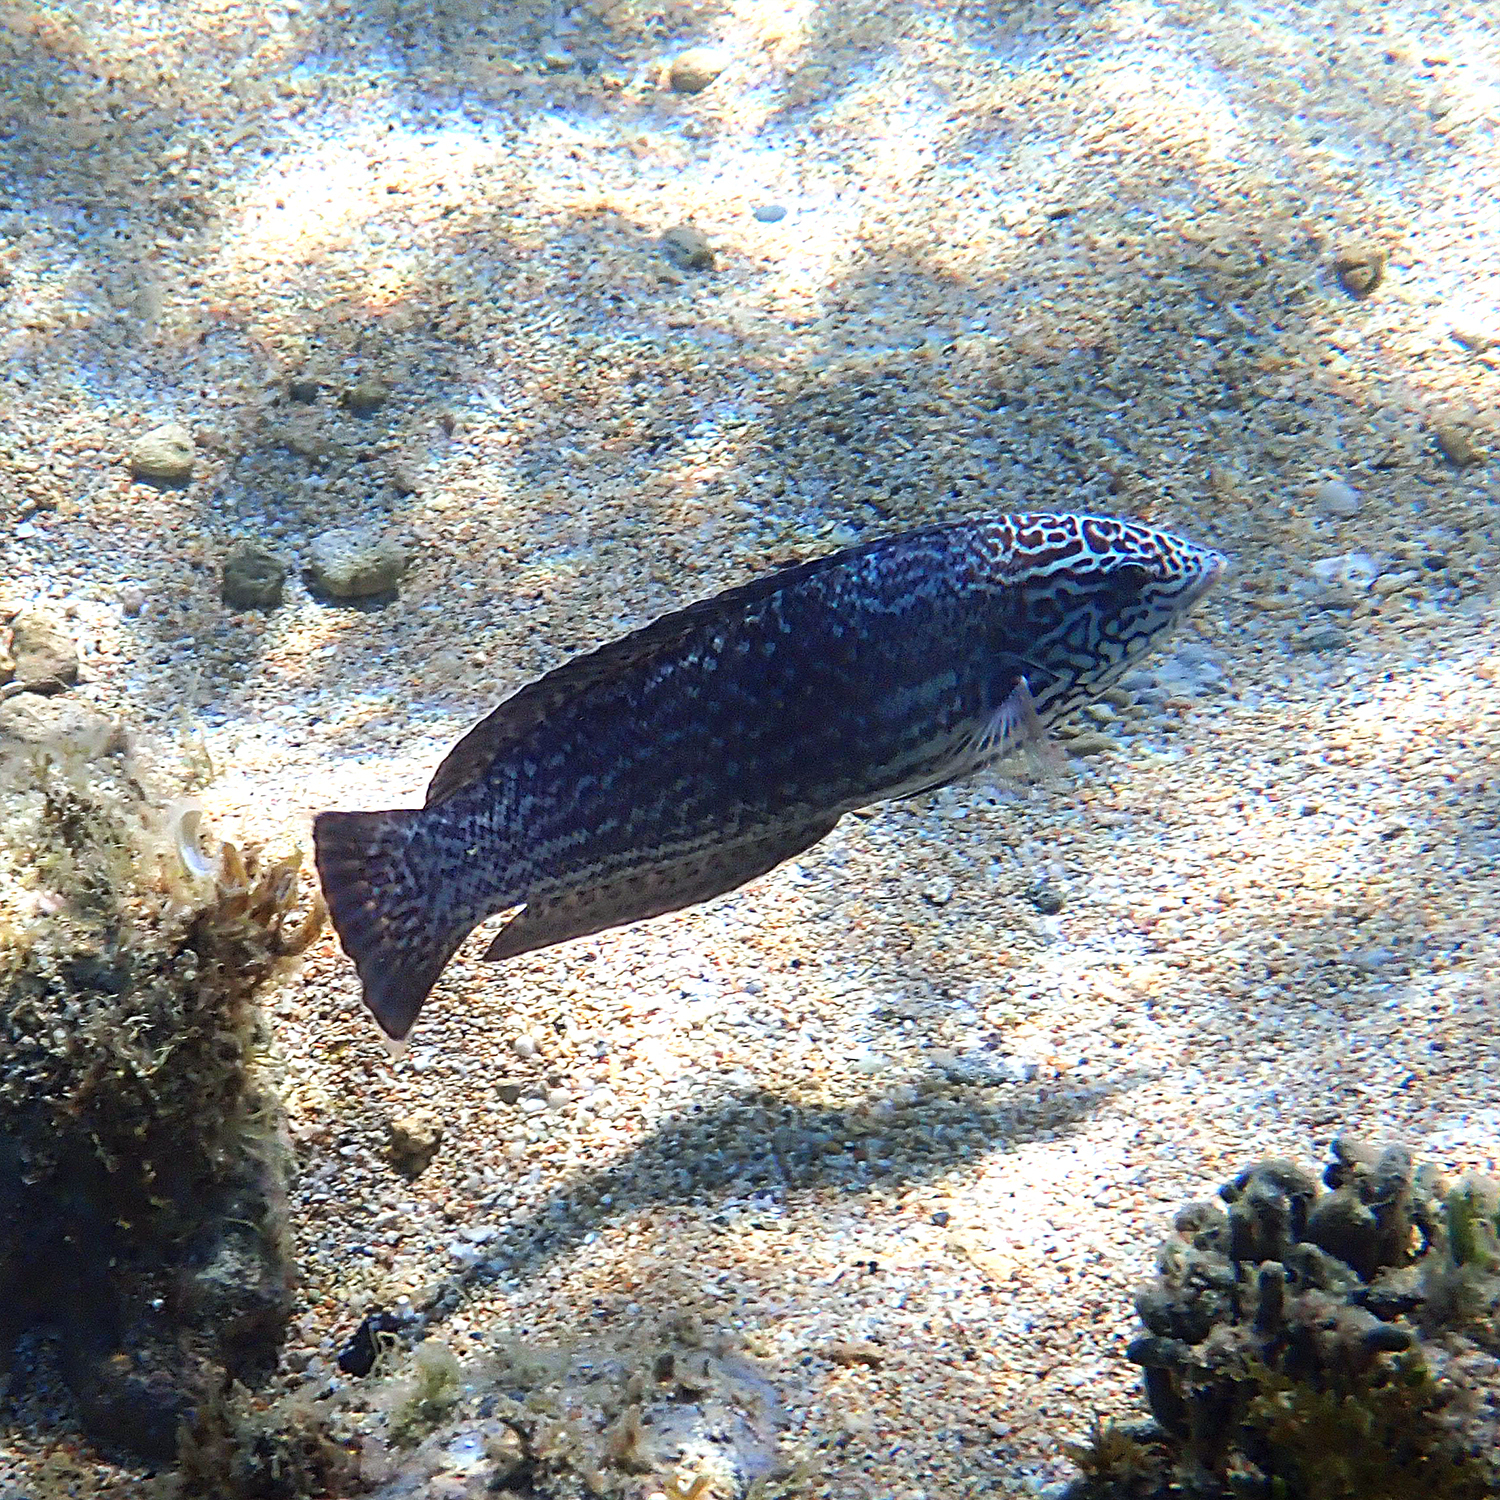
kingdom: Animalia
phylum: Chordata
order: Perciformes
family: Labridae
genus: Coris
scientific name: Coris bulbifrons
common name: Doubleheader
